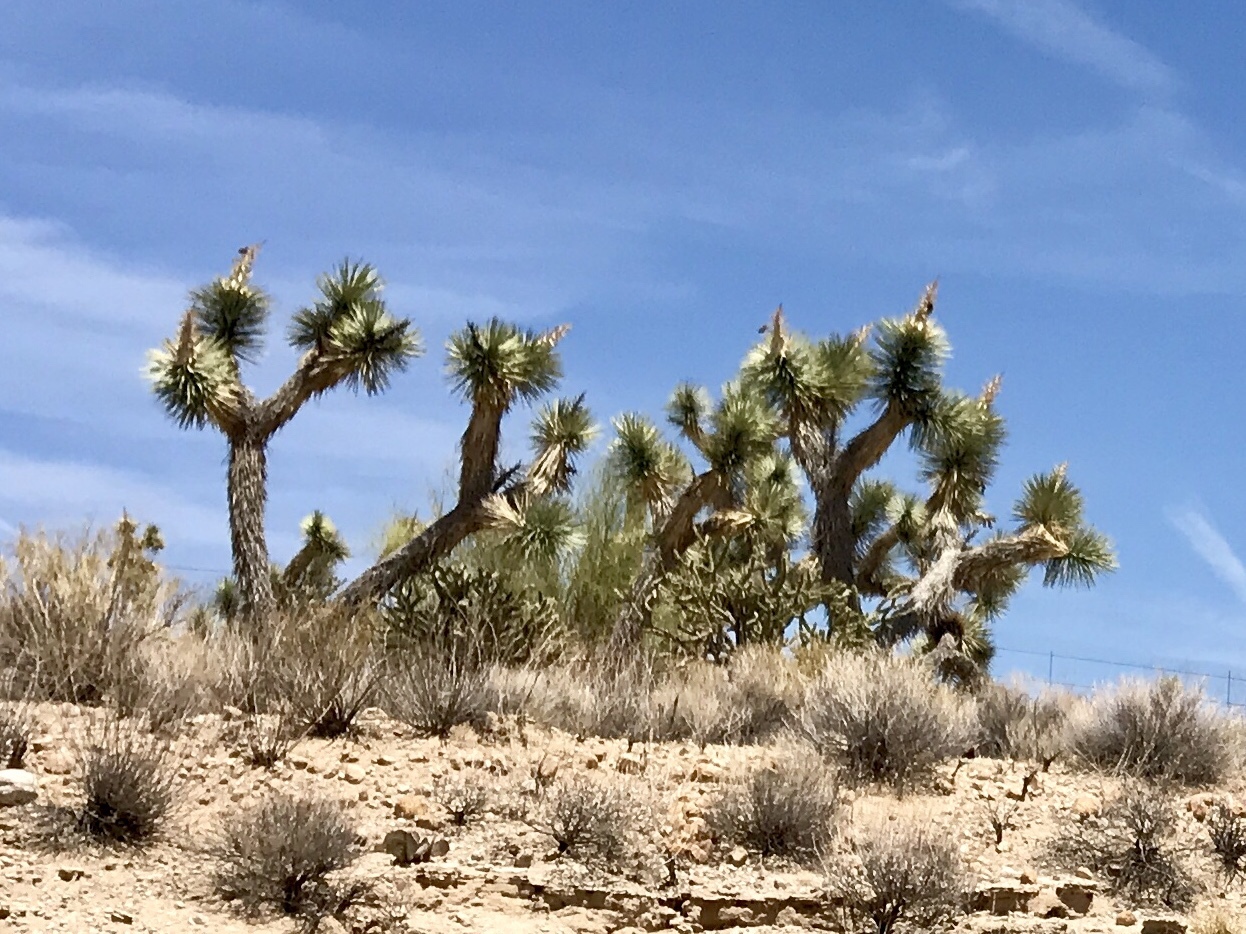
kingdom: Plantae
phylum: Tracheophyta
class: Liliopsida
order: Asparagales
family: Asparagaceae
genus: Yucca
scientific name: Yucca brevifolia
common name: Joshua tree
